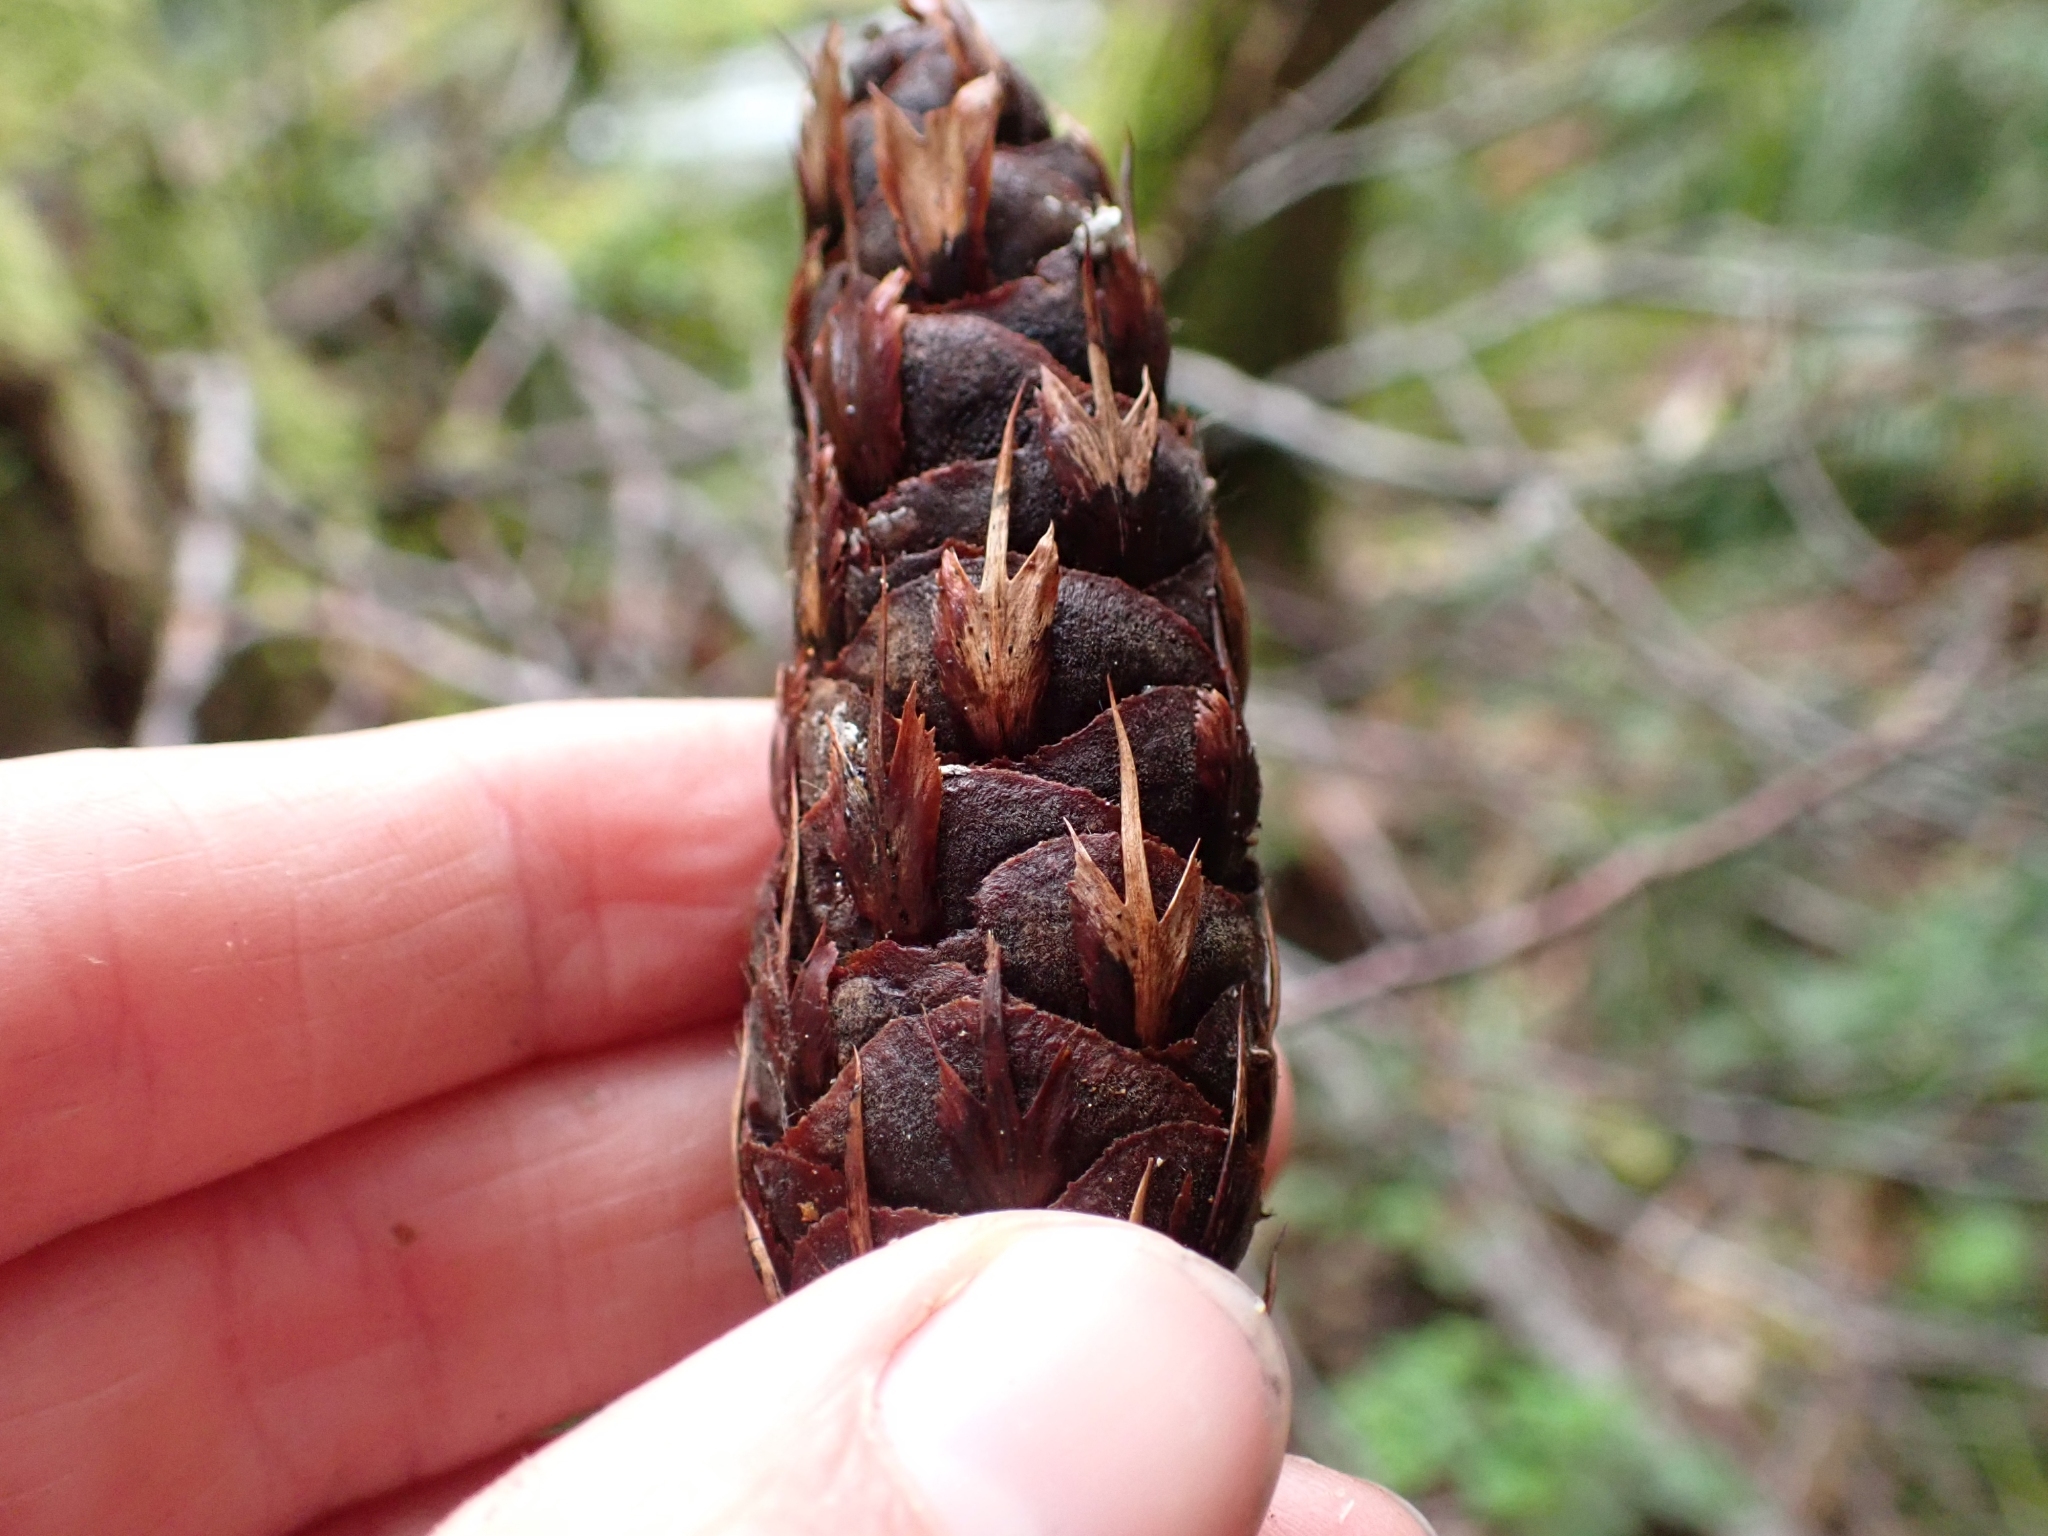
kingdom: Plantae
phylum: Tracheophyta
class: Pinopsida
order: Pinales
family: Pinaceae
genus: Pseudotsuga
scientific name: Pseudotsuga menziesii
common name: Douglas fir
